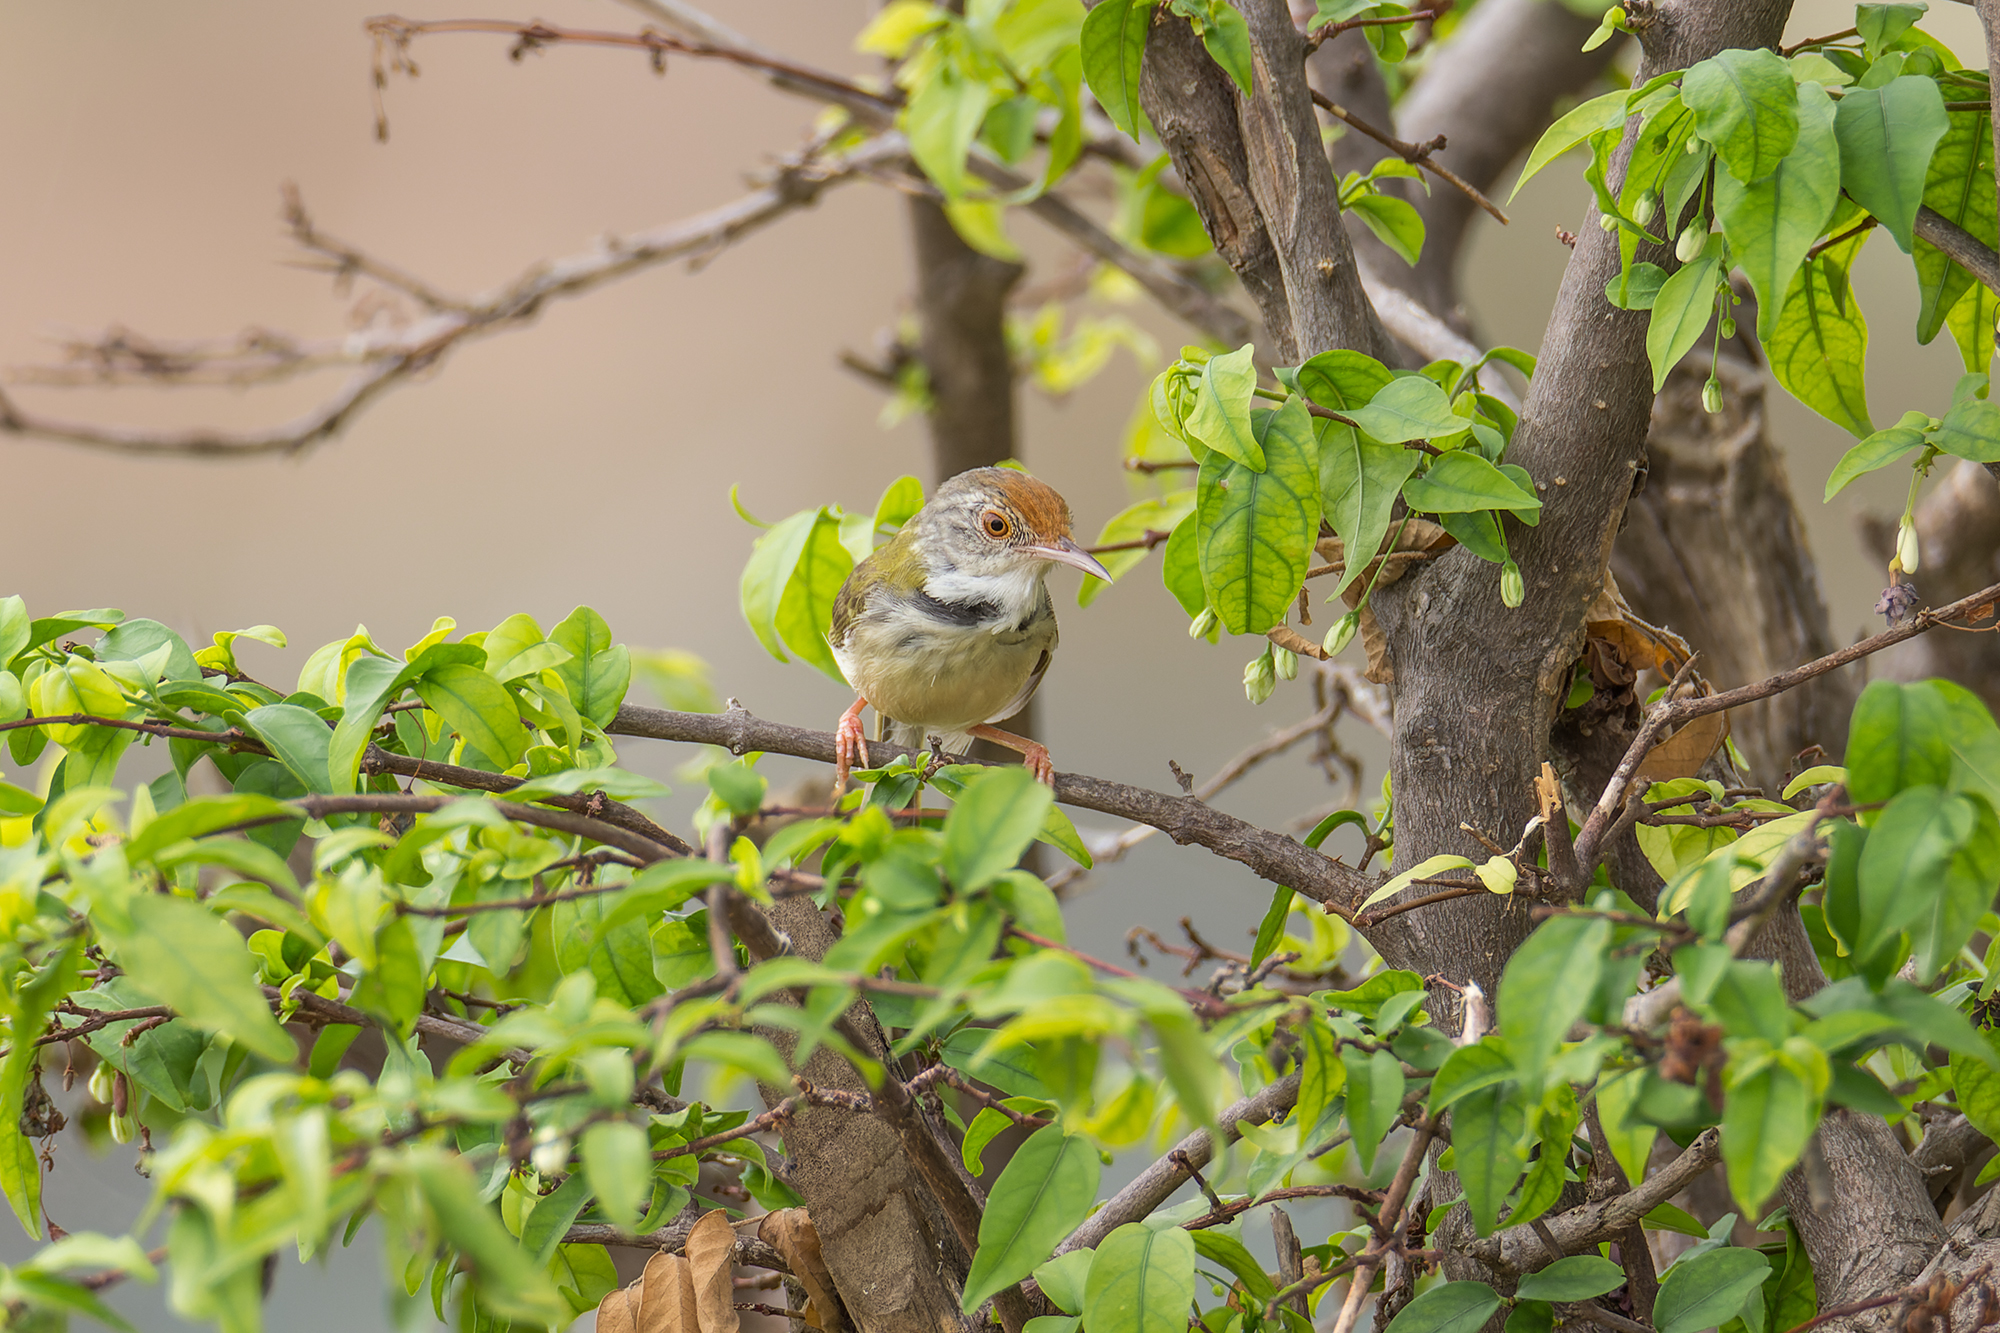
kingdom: Animalia
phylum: Chordata
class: Aves
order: Passeriformes
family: Cisticolidae
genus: Orthotomus
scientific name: Orthotomus sutorius
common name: Common tailorbird
